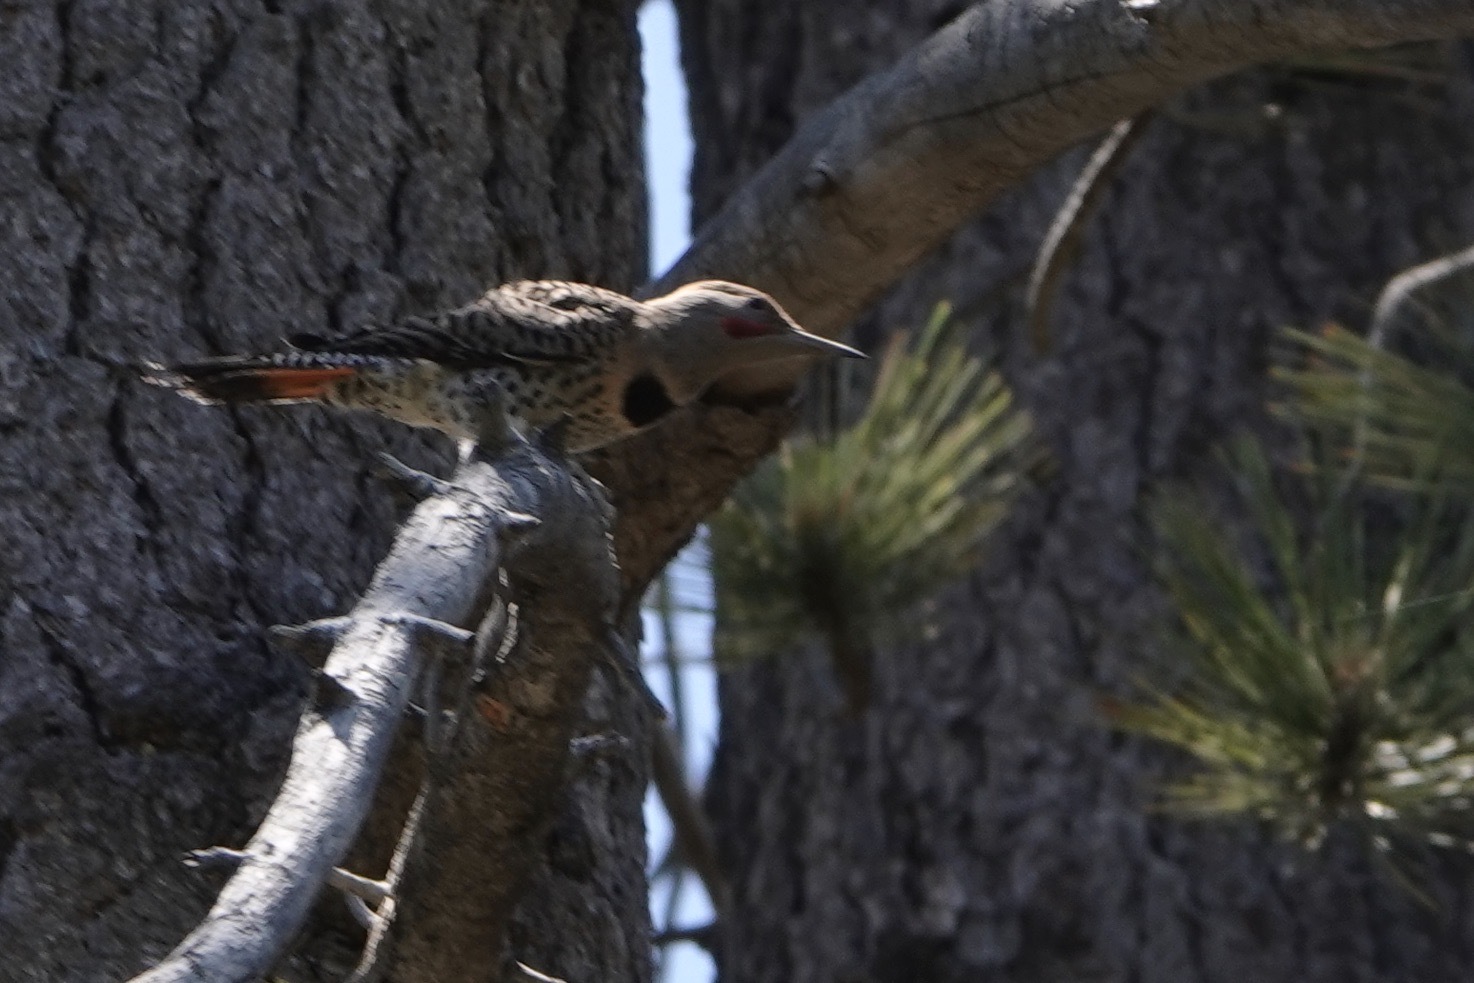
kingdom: Animalia
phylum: Chordata
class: Aves
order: Piciformes
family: Picidae
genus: Colaptes
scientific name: Colaptes auratus
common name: Northern flicker
